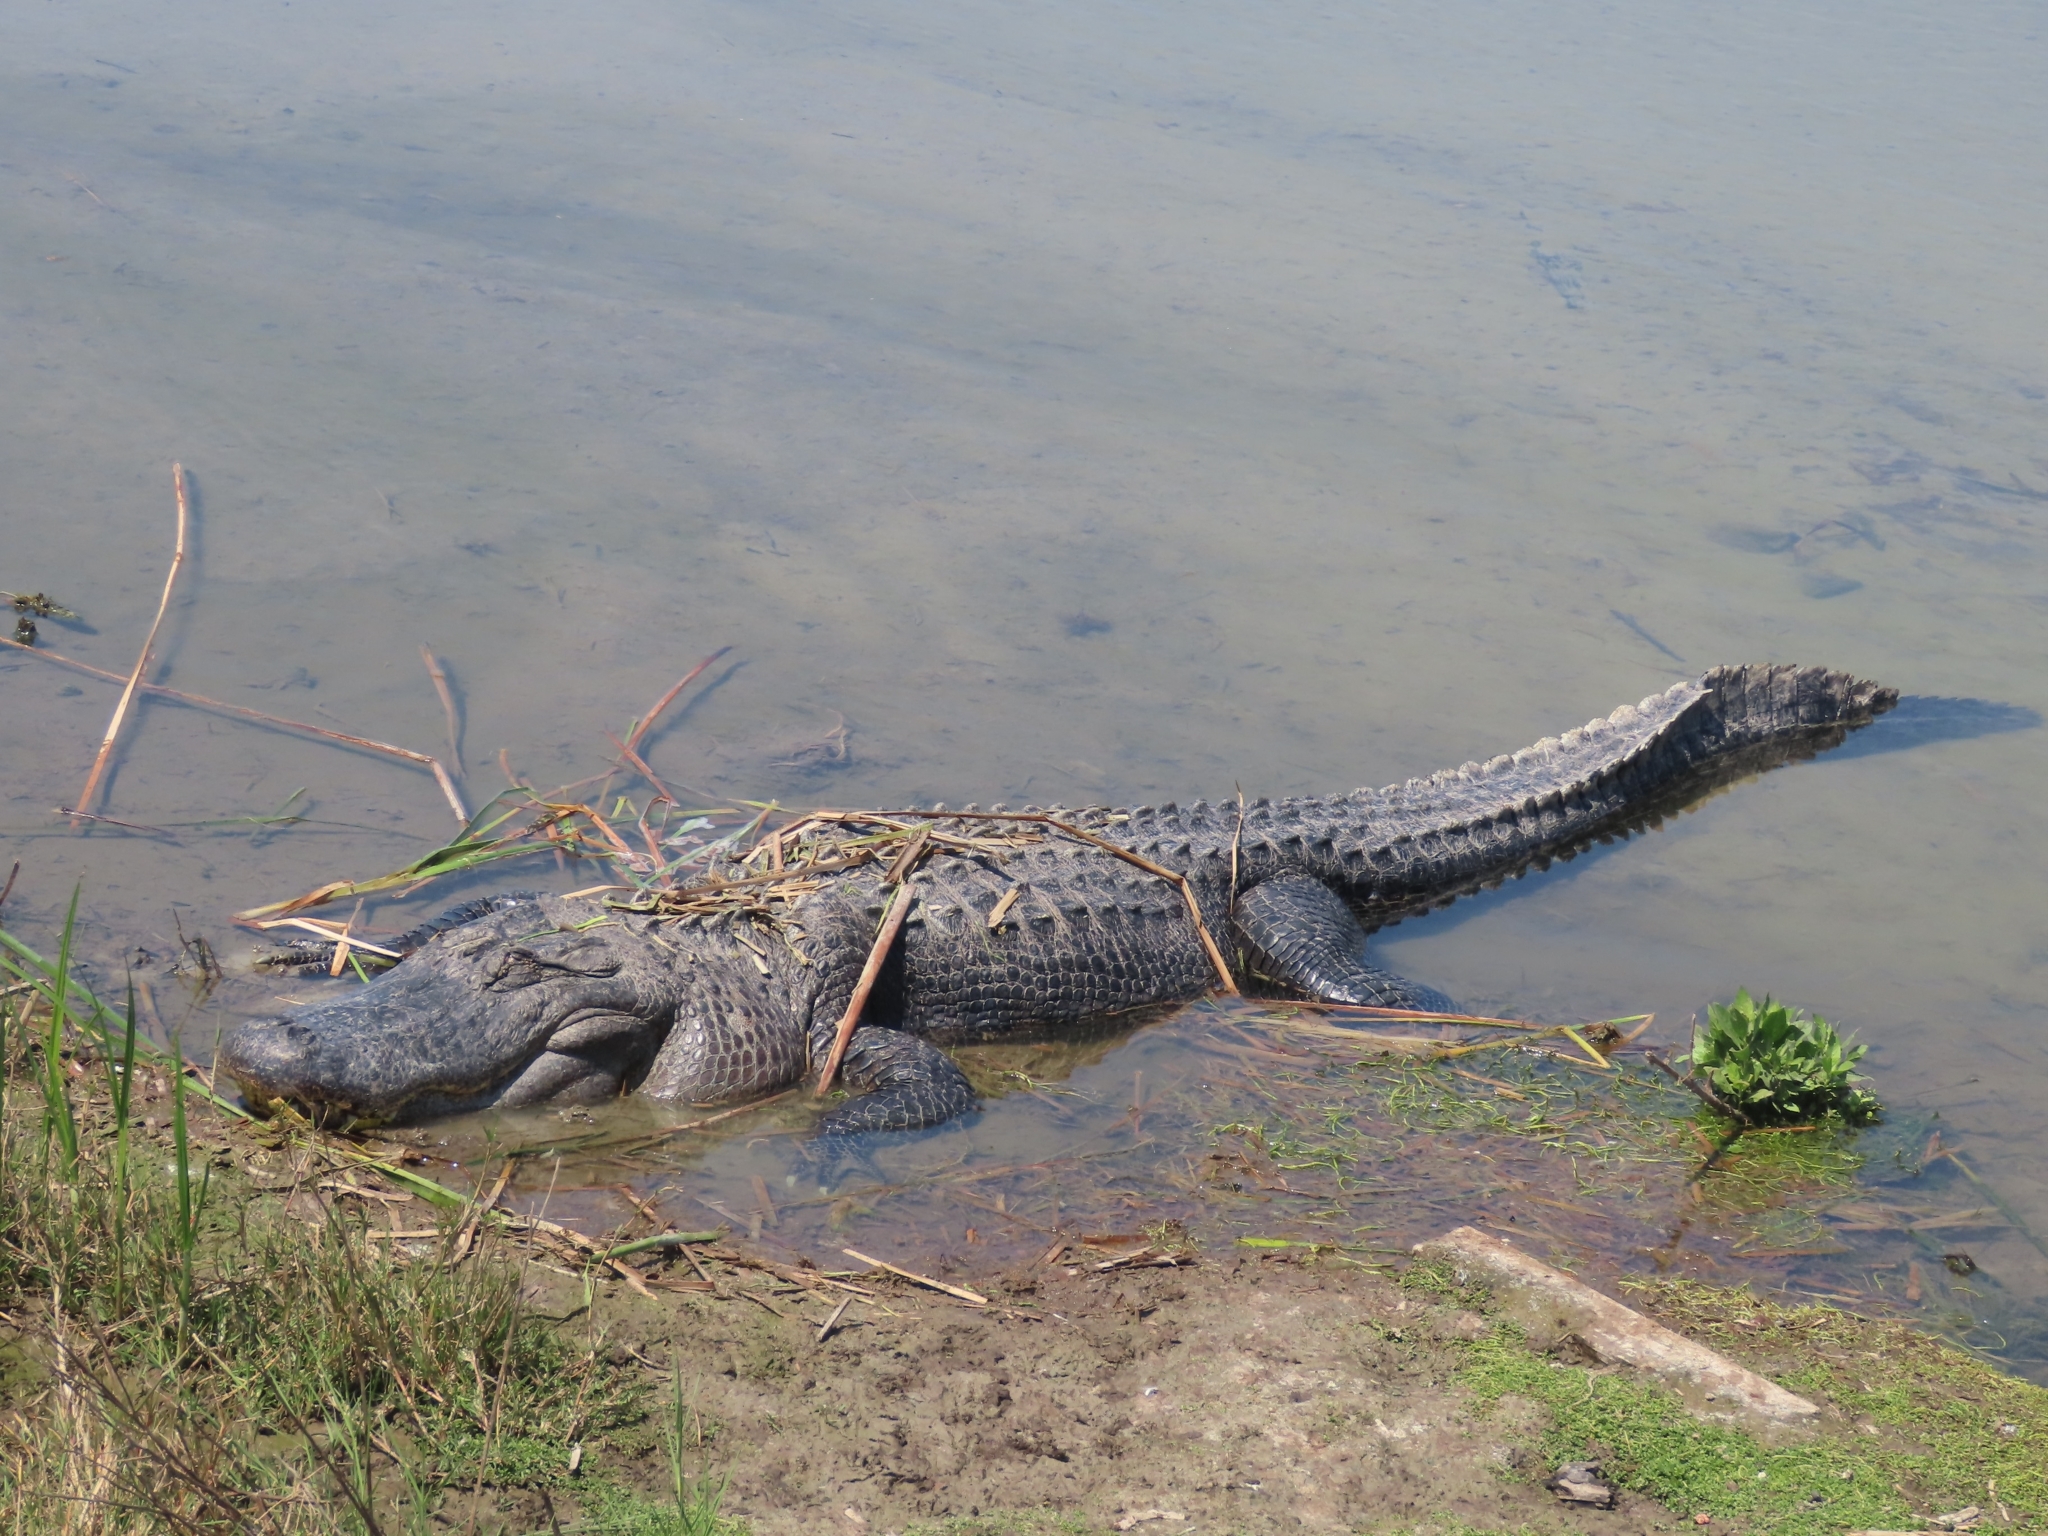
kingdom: Animalia
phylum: Chordata
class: Crocodylia
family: Alligatoridae
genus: Alligator
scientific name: Alligator mississippiensis
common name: American alligator
